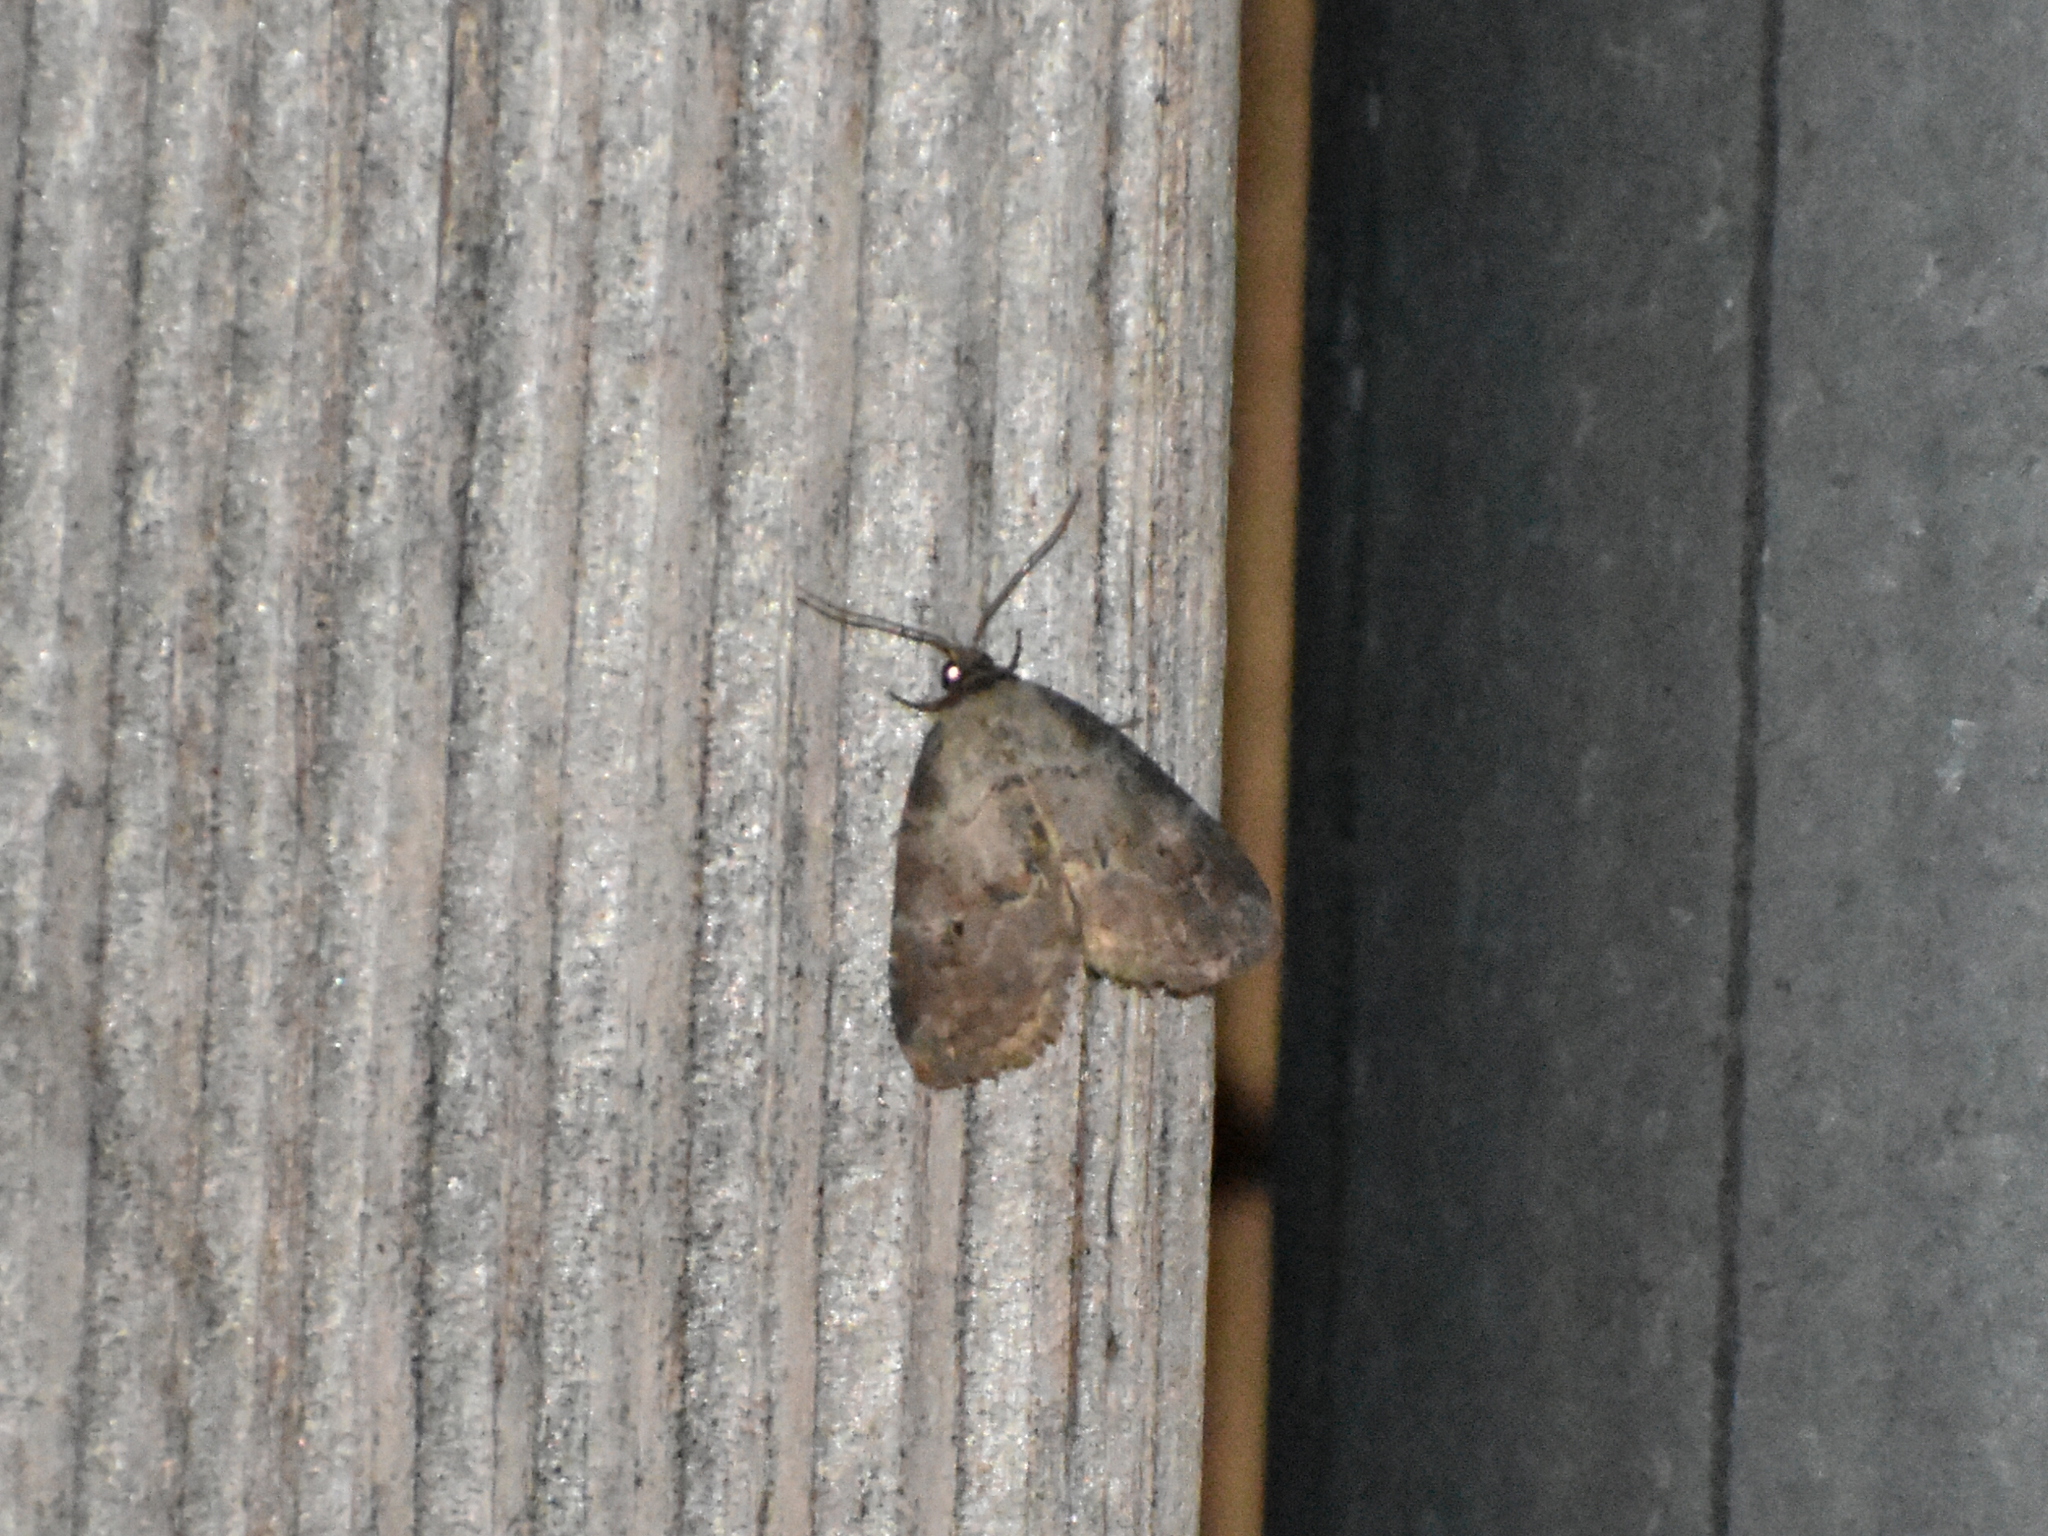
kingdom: Animalia
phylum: Arthropoda
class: Insecta
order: Lepidoptera
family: Erebidae
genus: Hyperstrotia
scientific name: Hyperstrotia pervertens
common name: Dotted graylet
